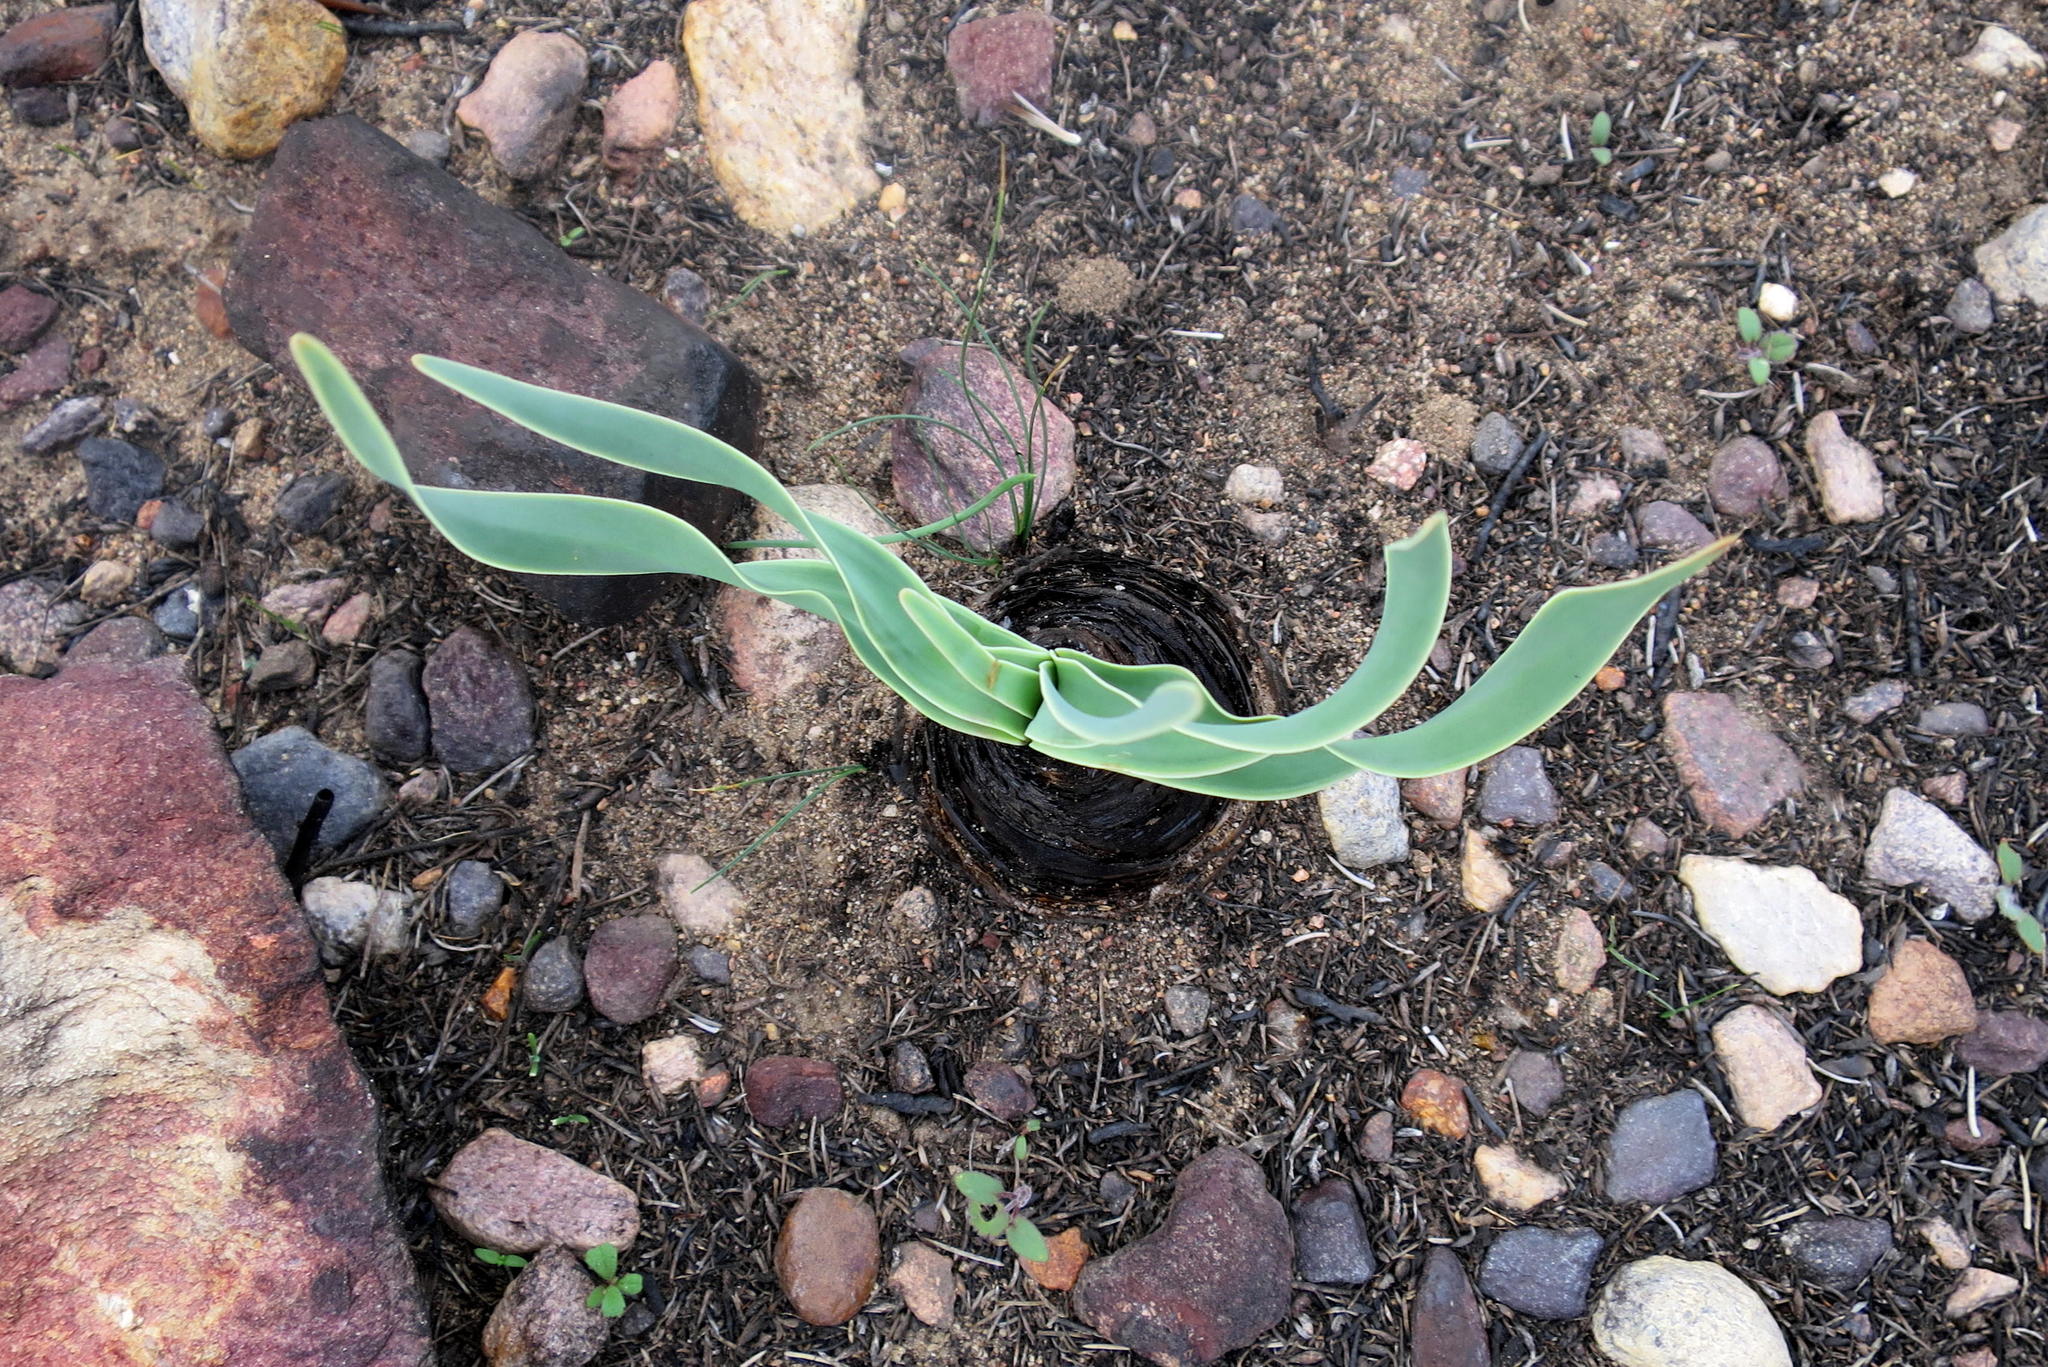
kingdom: Plantae
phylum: Tracheophyta
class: Liliopsida
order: Asparagales
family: Amaryllidaceae
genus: Boophone
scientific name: Boophone disticha
